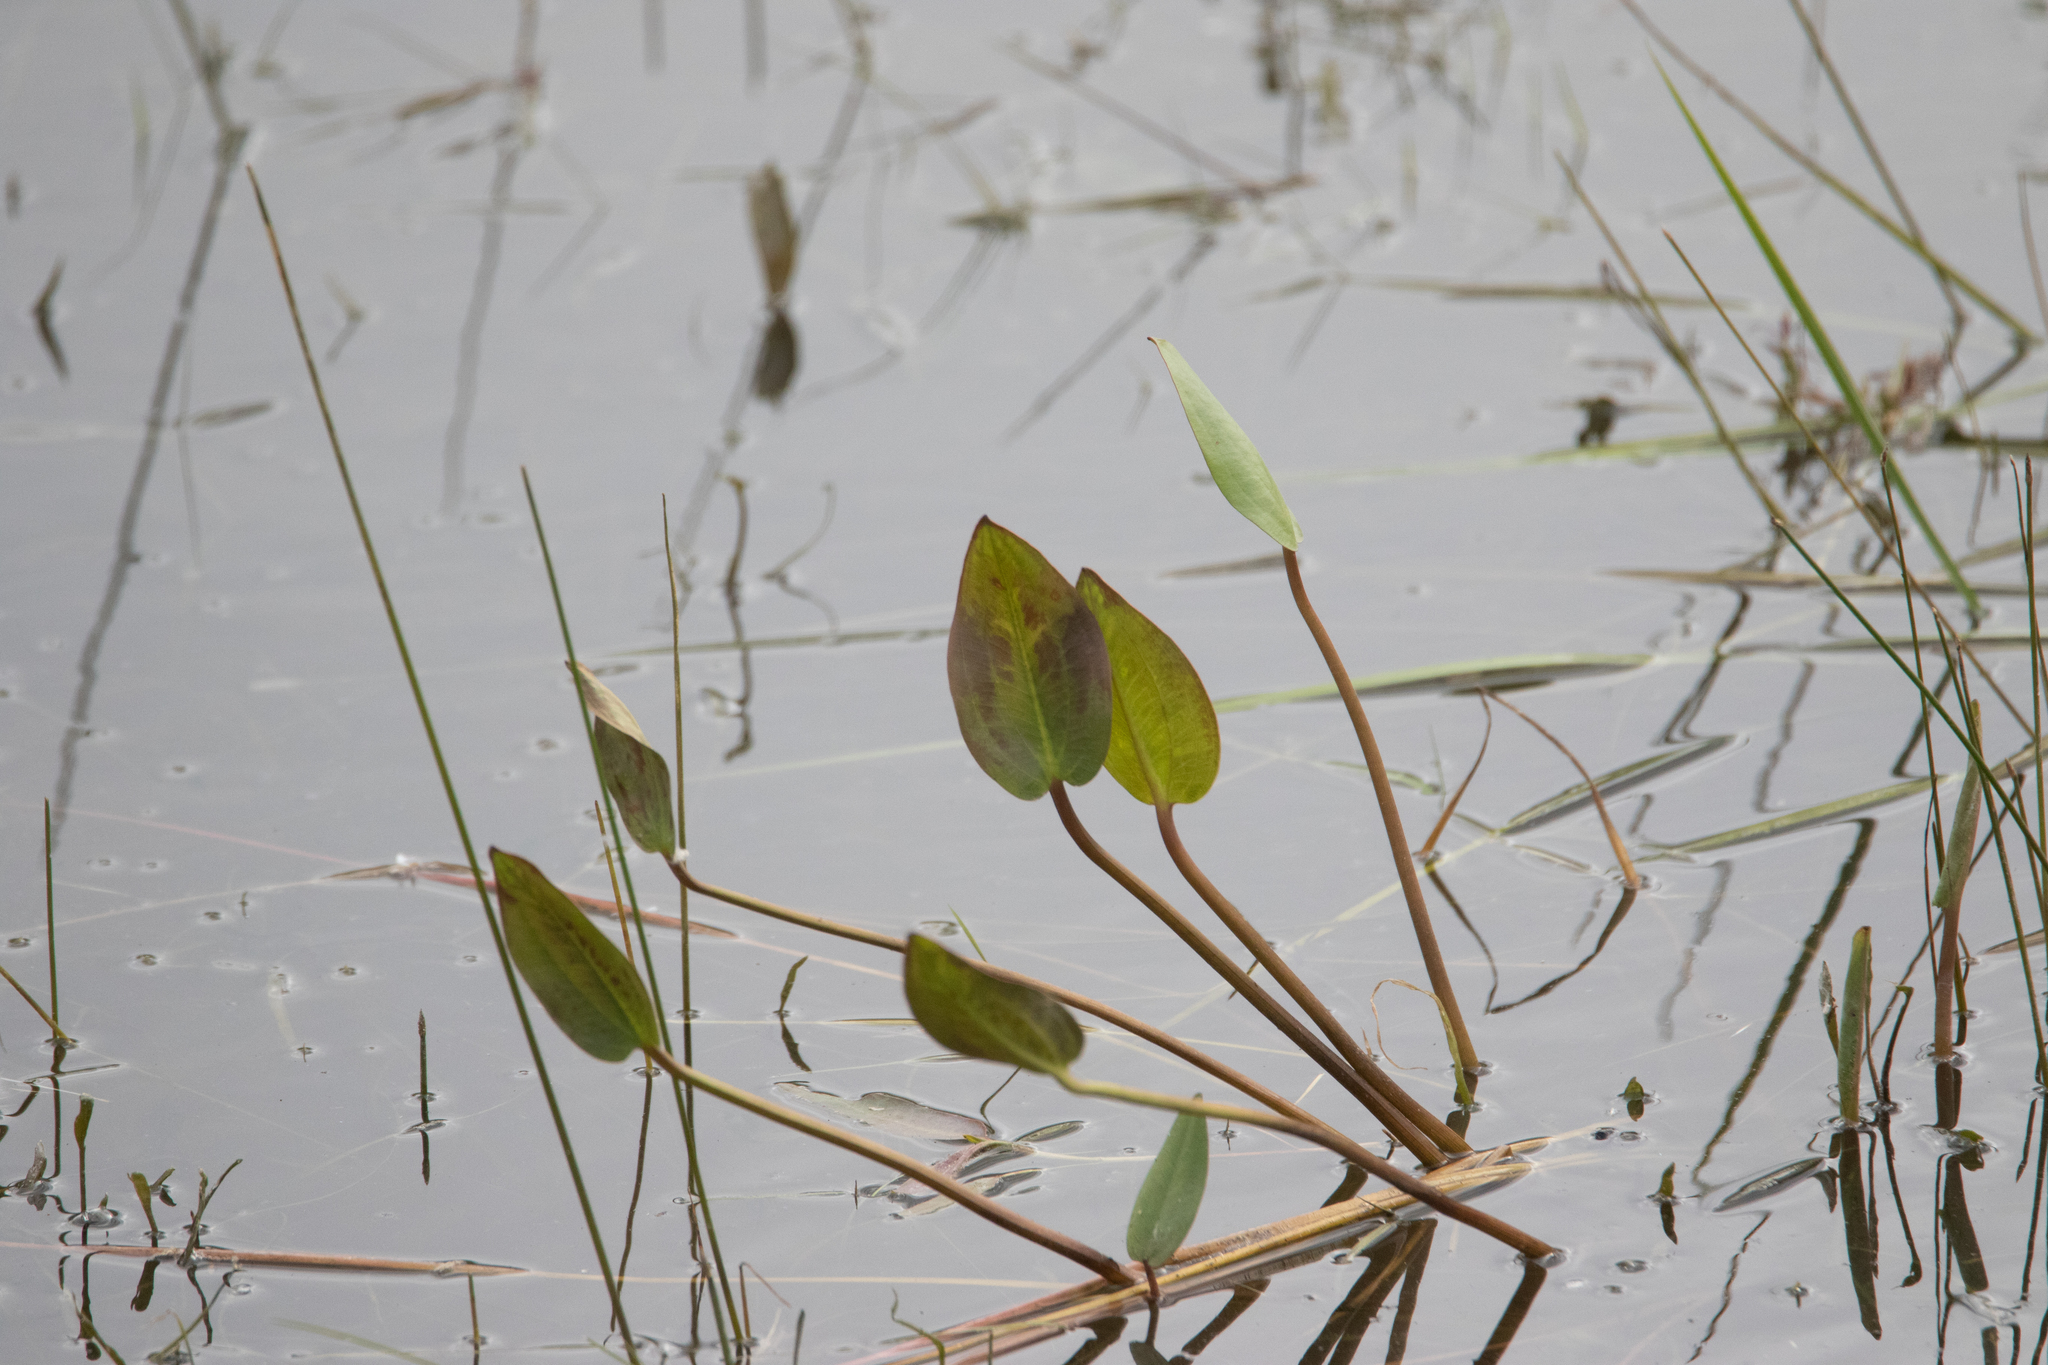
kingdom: Plantae
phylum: Tracheophyta
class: Liliopsida
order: Alismatales
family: Alismataceae
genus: Alisma
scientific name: Alisma plantago-aquatica
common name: Water-plantain
